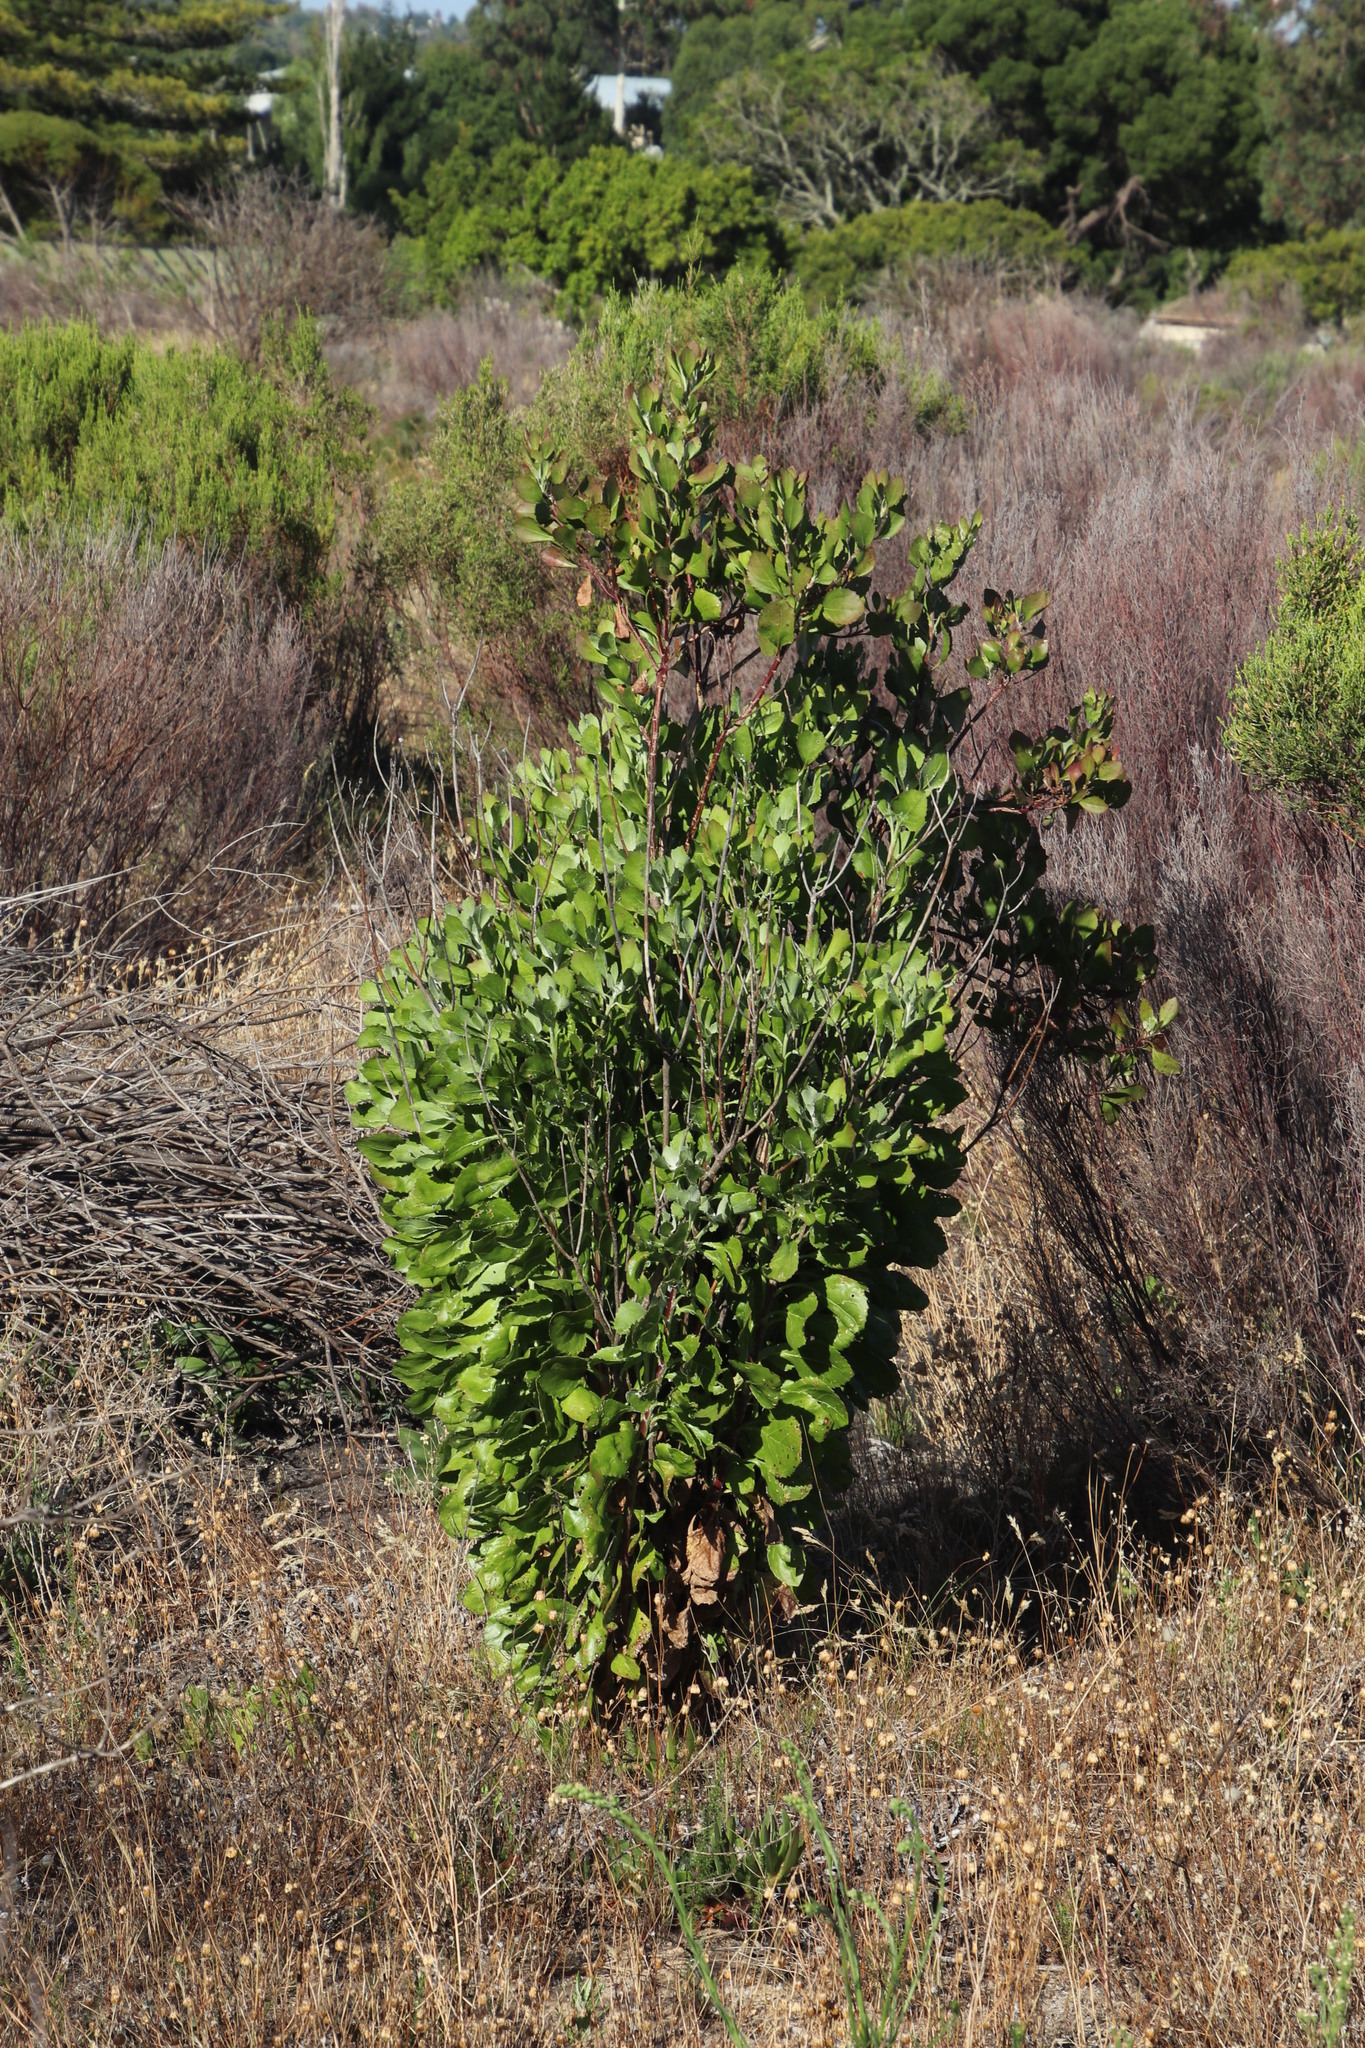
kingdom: Plantae
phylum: Tracheophyta
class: Magnoliopsida
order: Asterales
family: Asteraceae
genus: Osteospermum
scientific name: Osteospermum moniliferum
